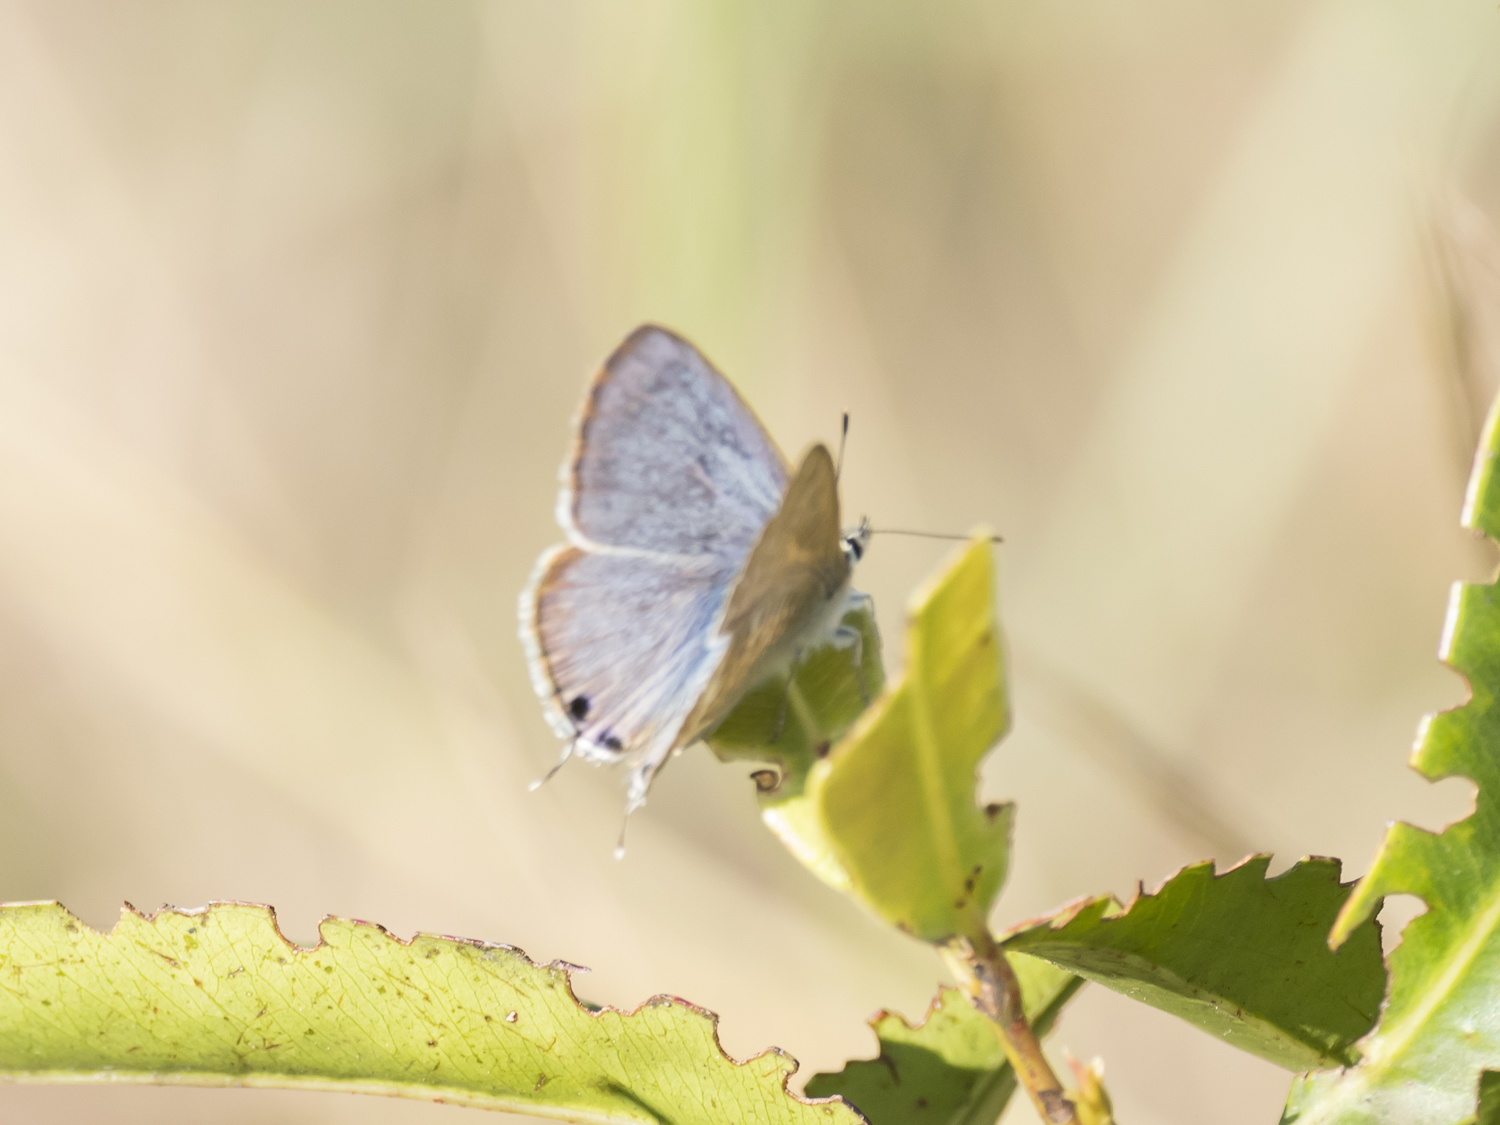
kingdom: Animalia
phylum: Arthropoda
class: Insecta
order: Lepidoptera
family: Lycaenidae
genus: Euchrysops
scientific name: Euchrysops cnejus
